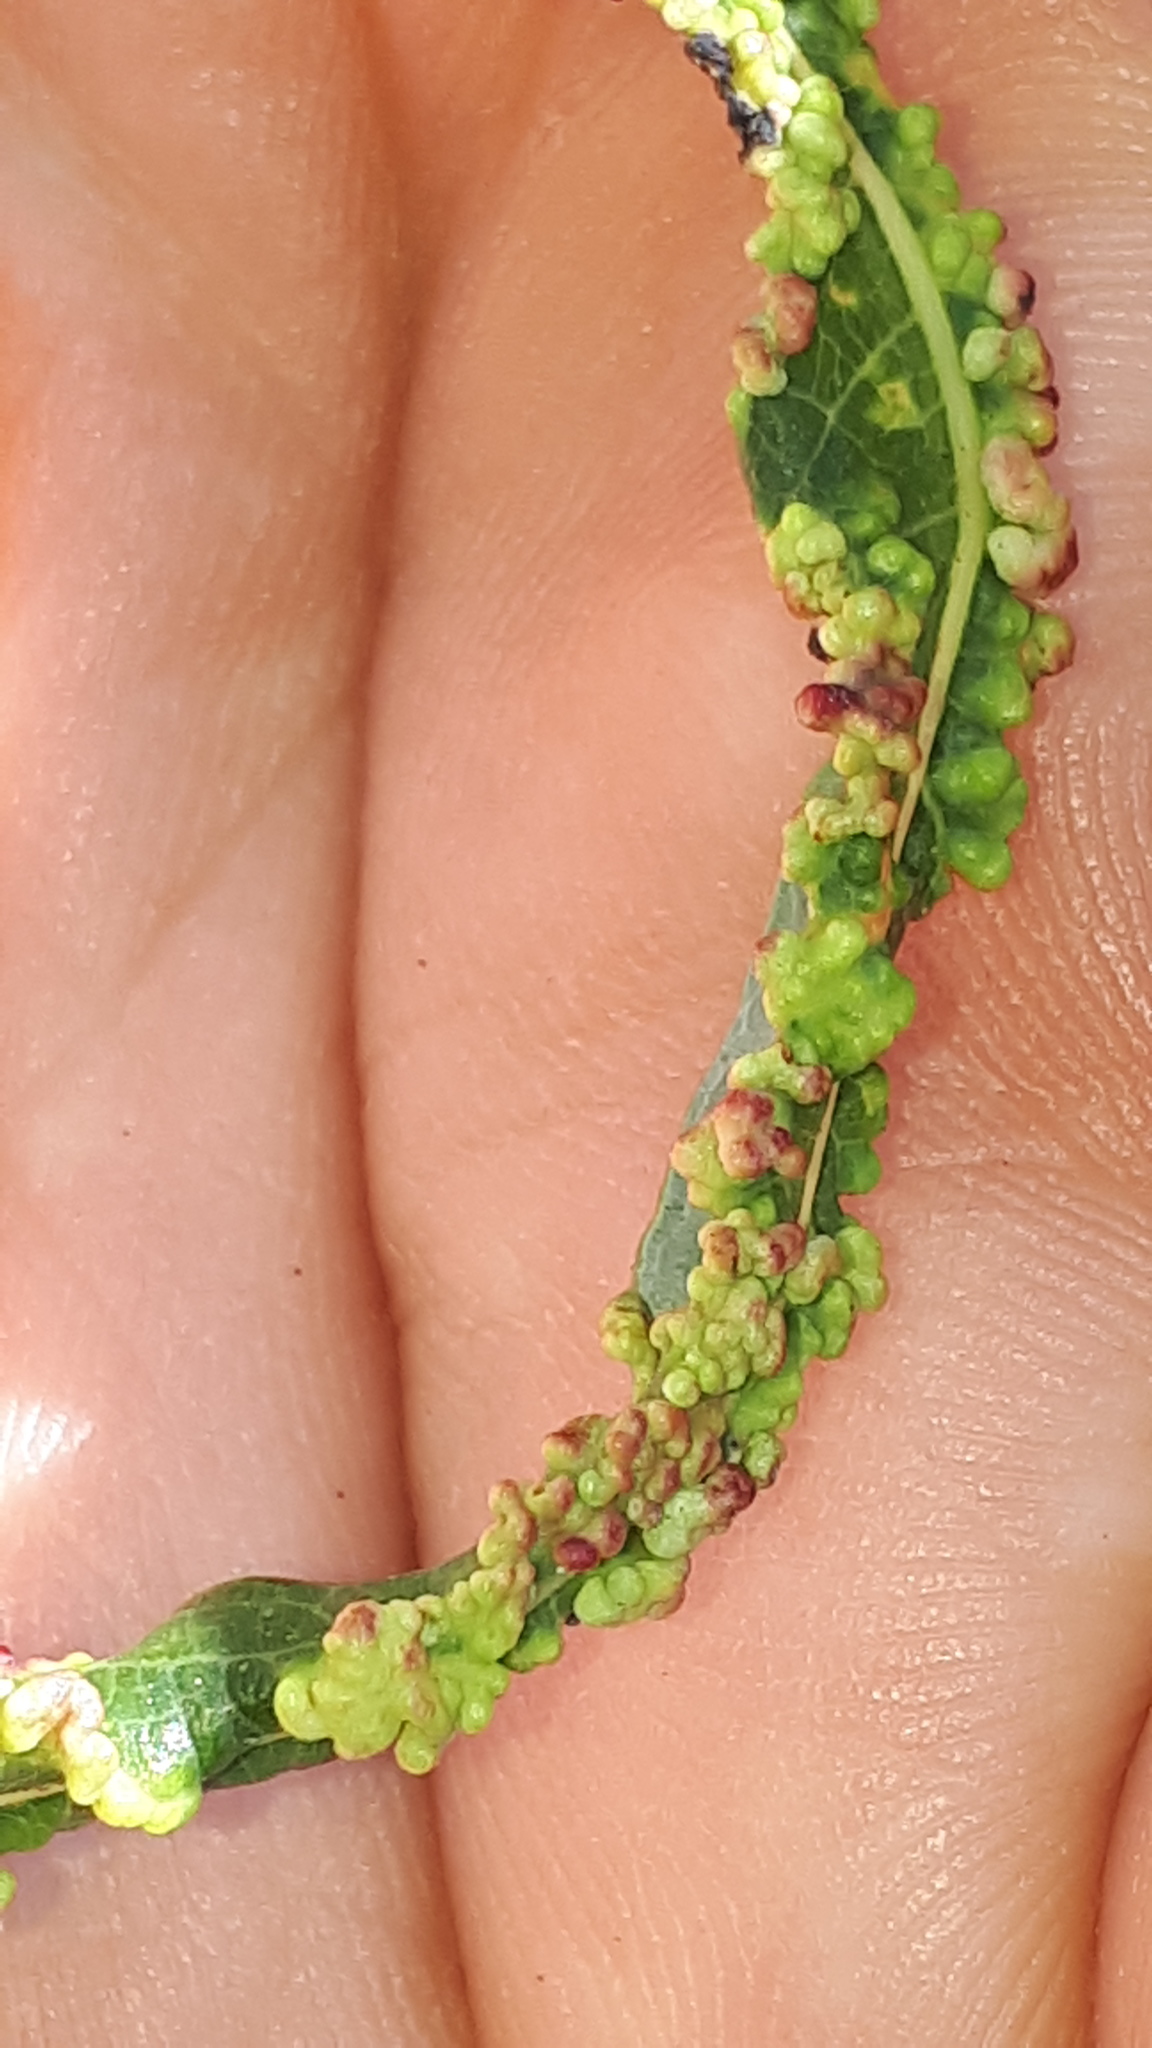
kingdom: Animalia
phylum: Arthropoda
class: Arachnida
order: Trombidiformes
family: Eriophyidae
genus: Aculus
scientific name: Aculus tetanothrix
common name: Willow bead gall mite
